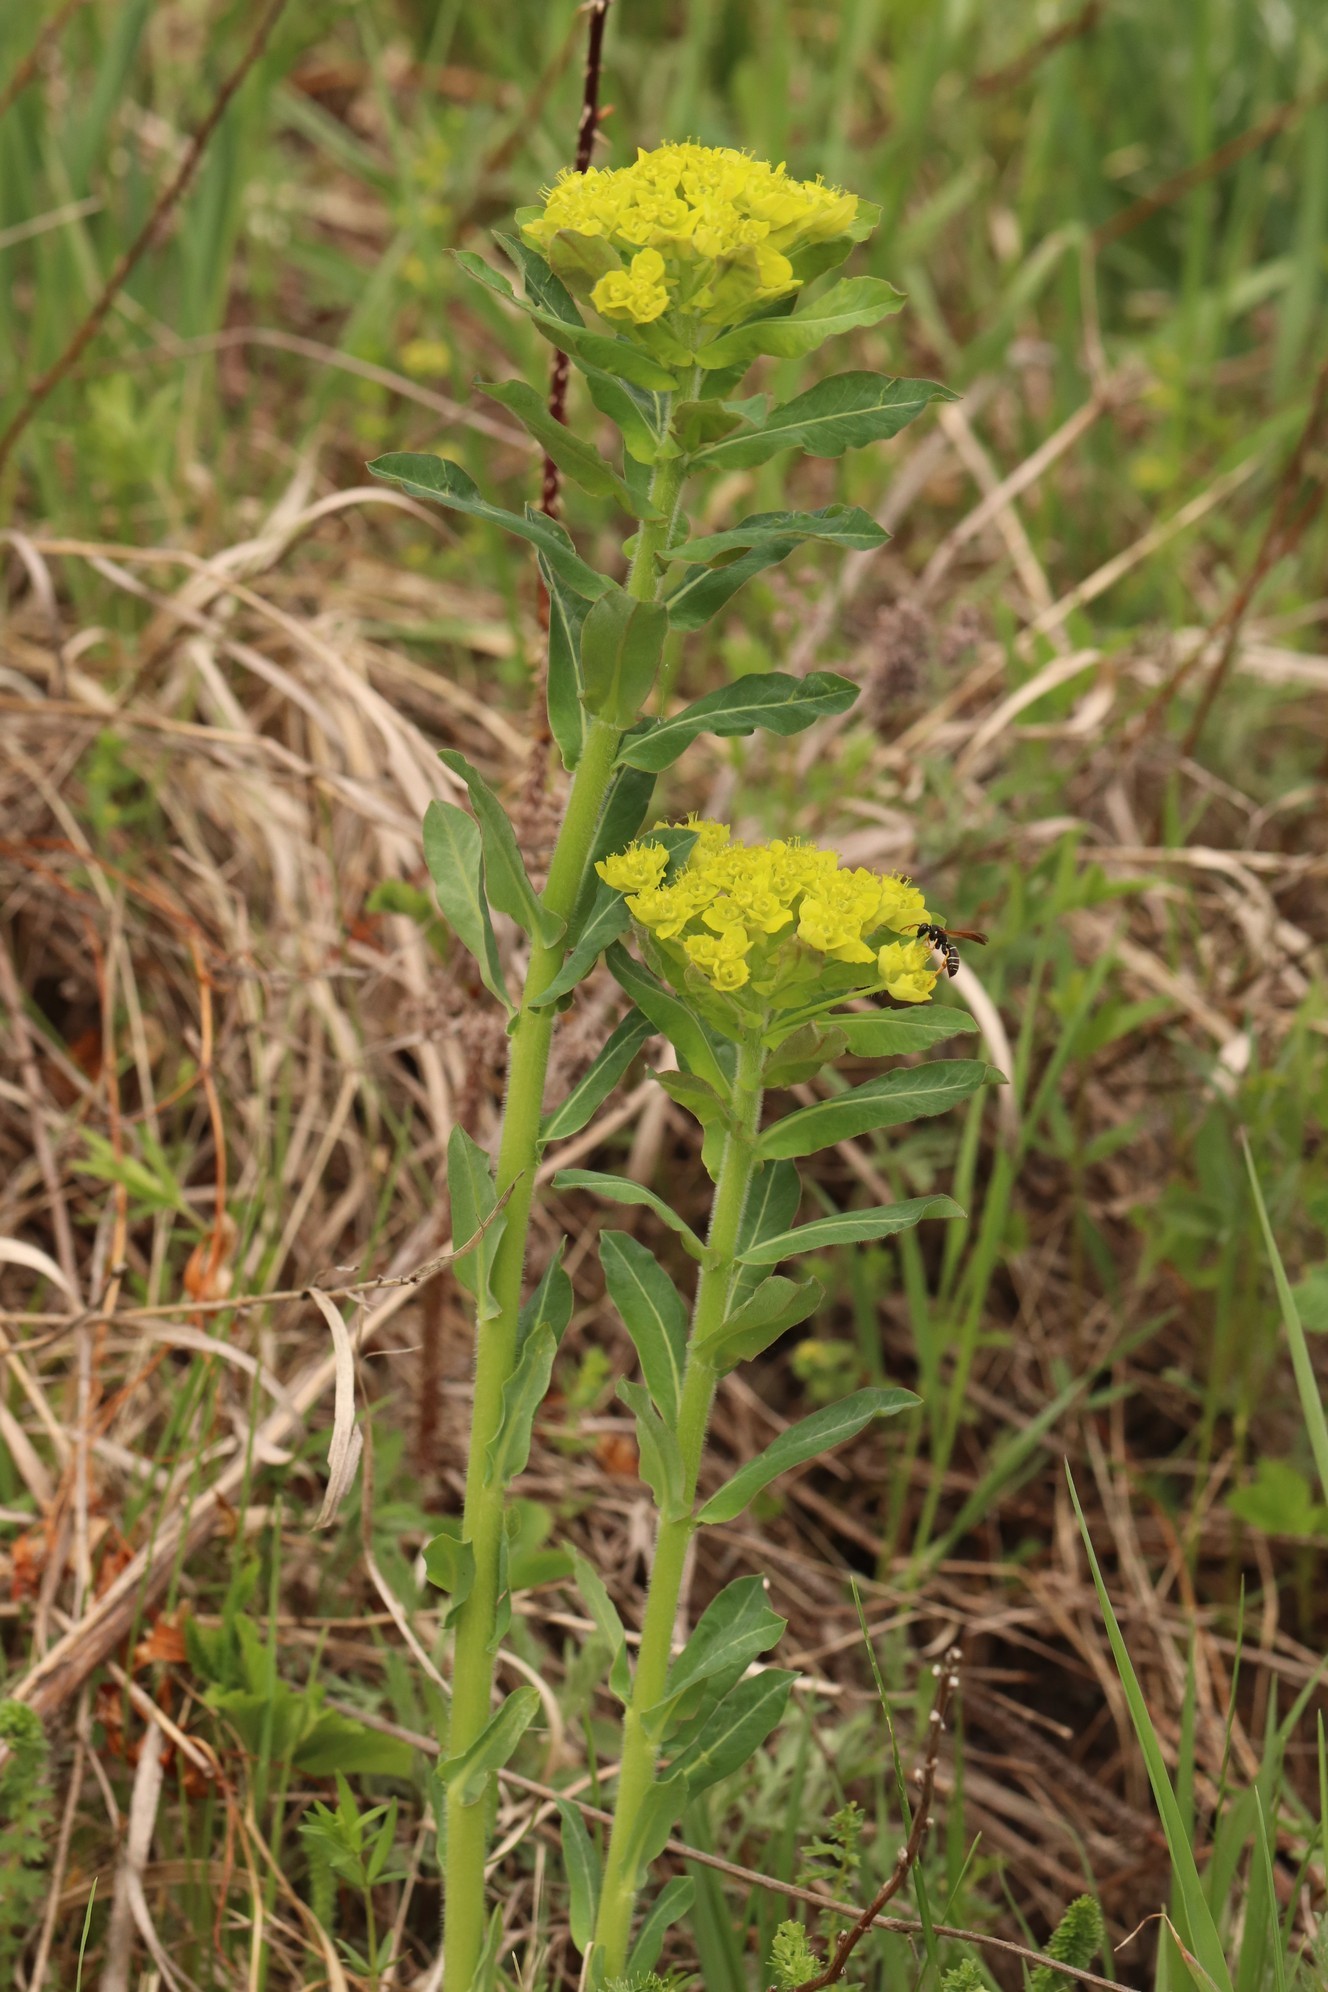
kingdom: Plantae
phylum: Tracheophyta
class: Magnoliopsida
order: Malpighiales
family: Euphorbiaceae
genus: Euphorbia
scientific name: Euphorbia pilosa
